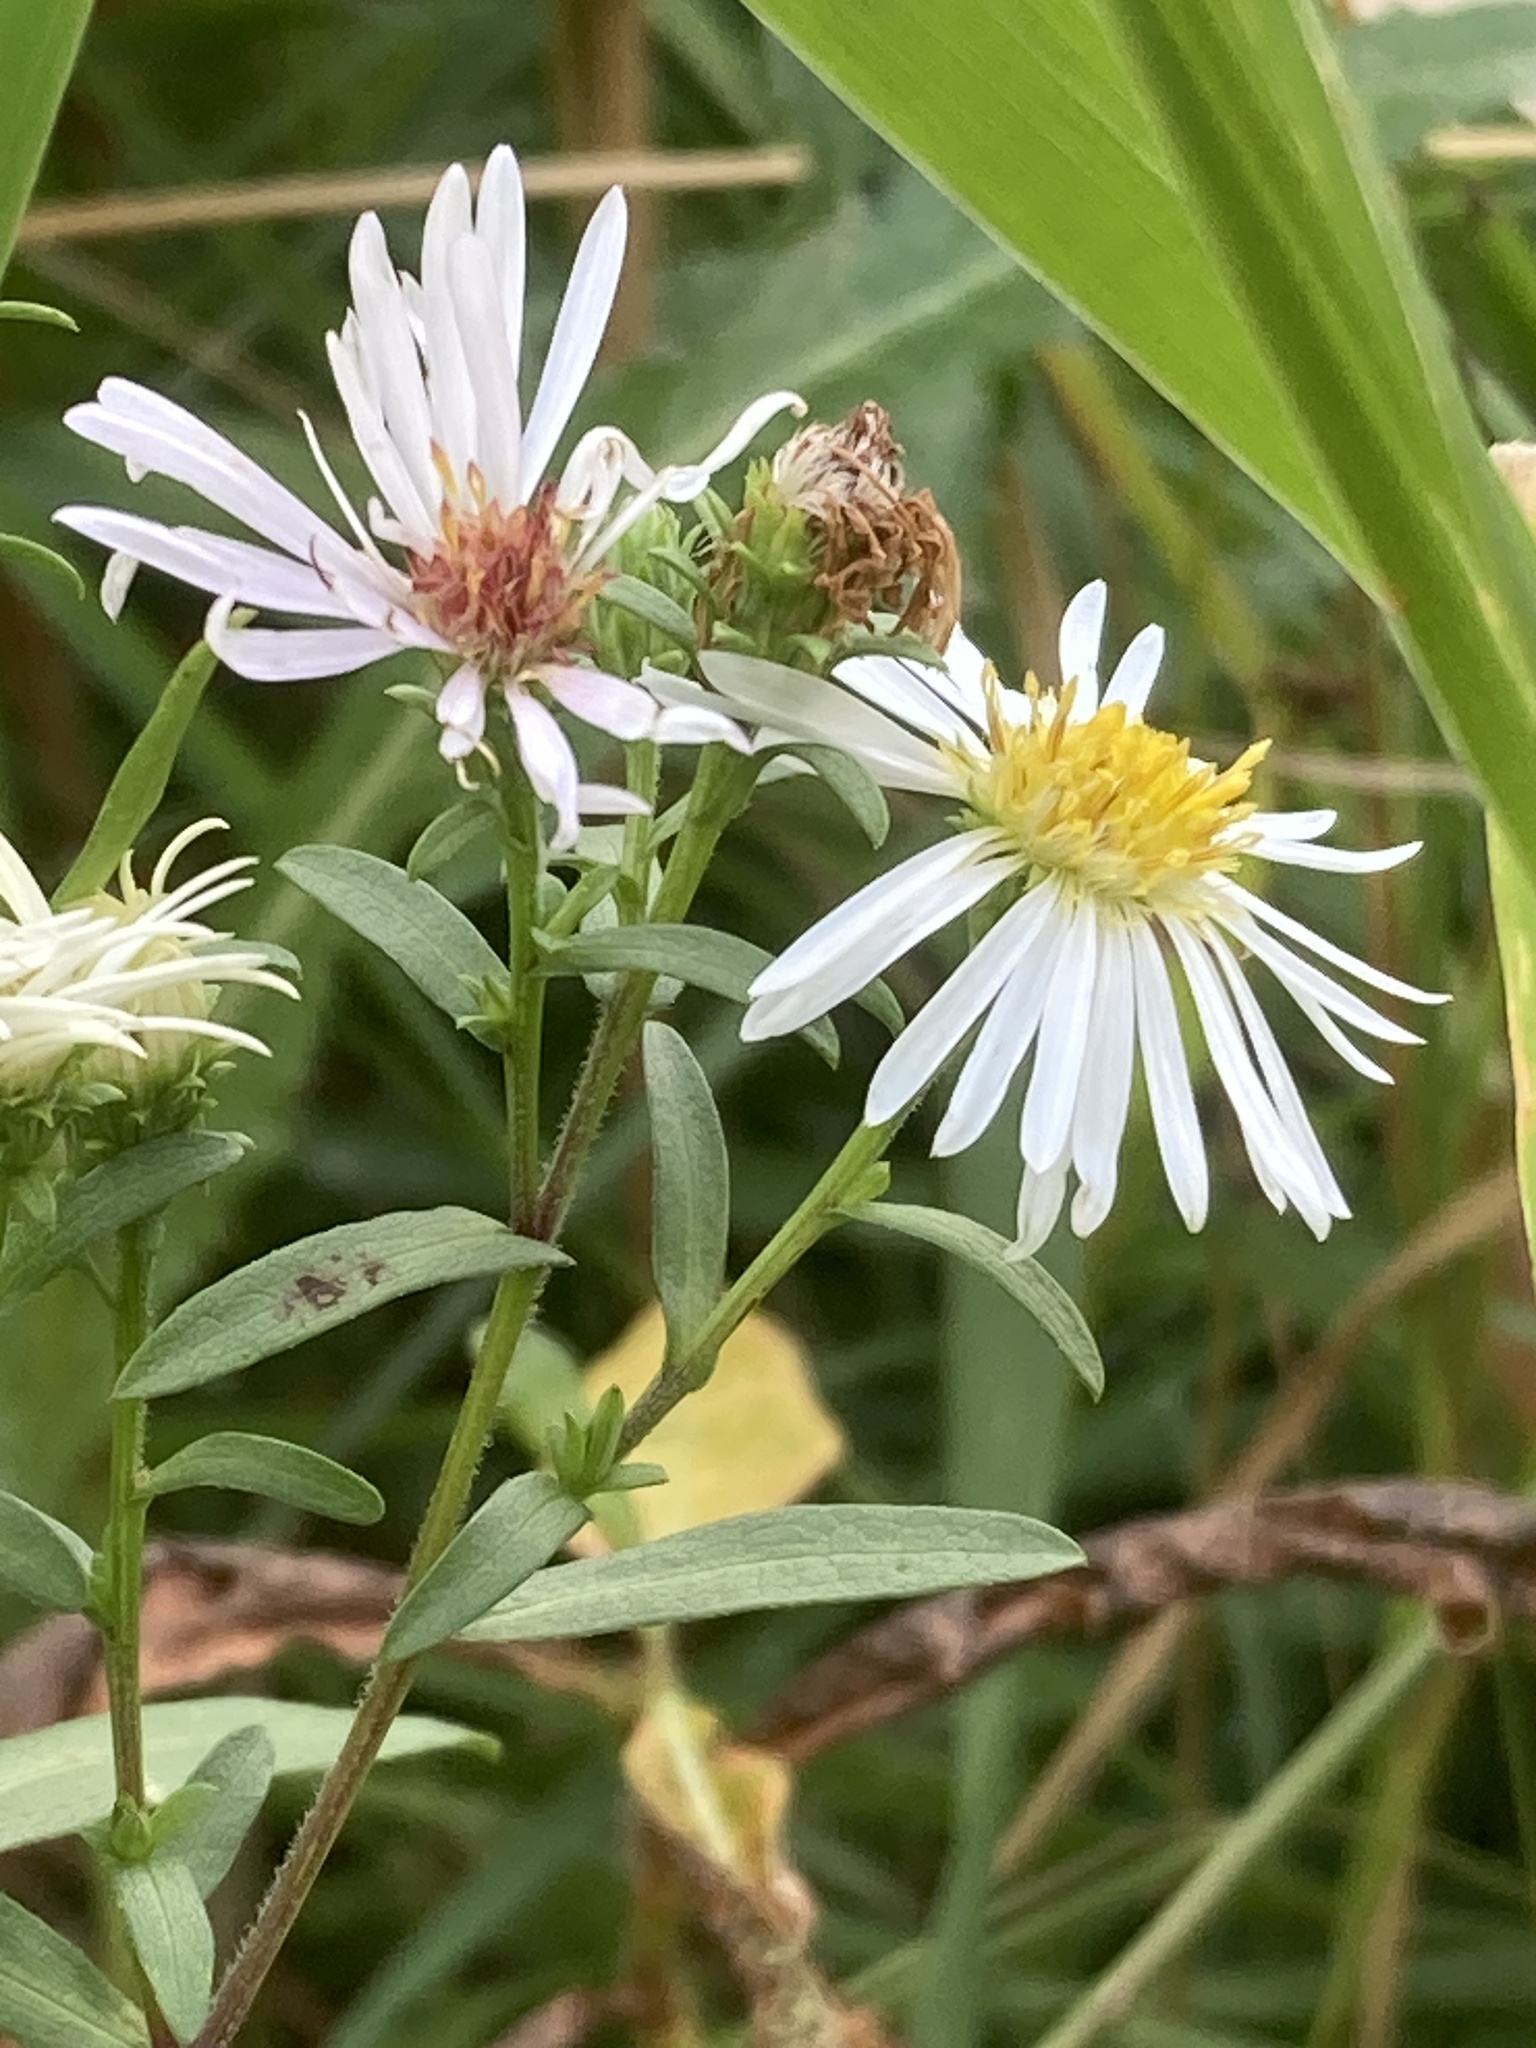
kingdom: Plantae
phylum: Tracheophyta
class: Magnoliopsida
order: Asterales
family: Asteraceae
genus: Symphyotrichum
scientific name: Symphyotrichum lanceolatum
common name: Panicled aster
